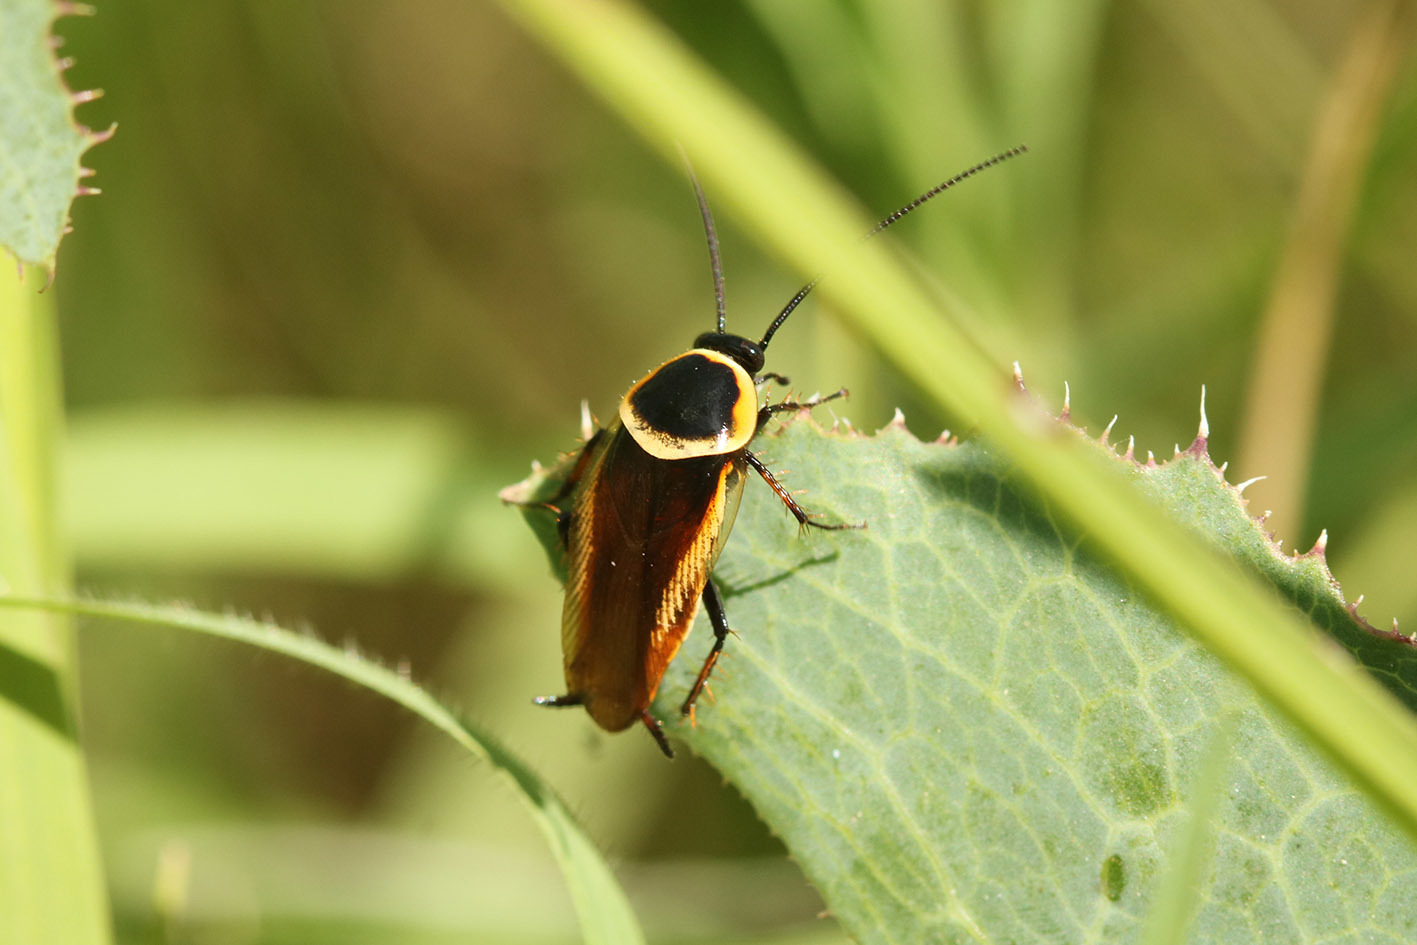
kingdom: Animalia
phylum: Arthropoda
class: Insecta
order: Blattodea
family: Ectobiidae
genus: Pseudomops
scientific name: Pseudomops neglectus
